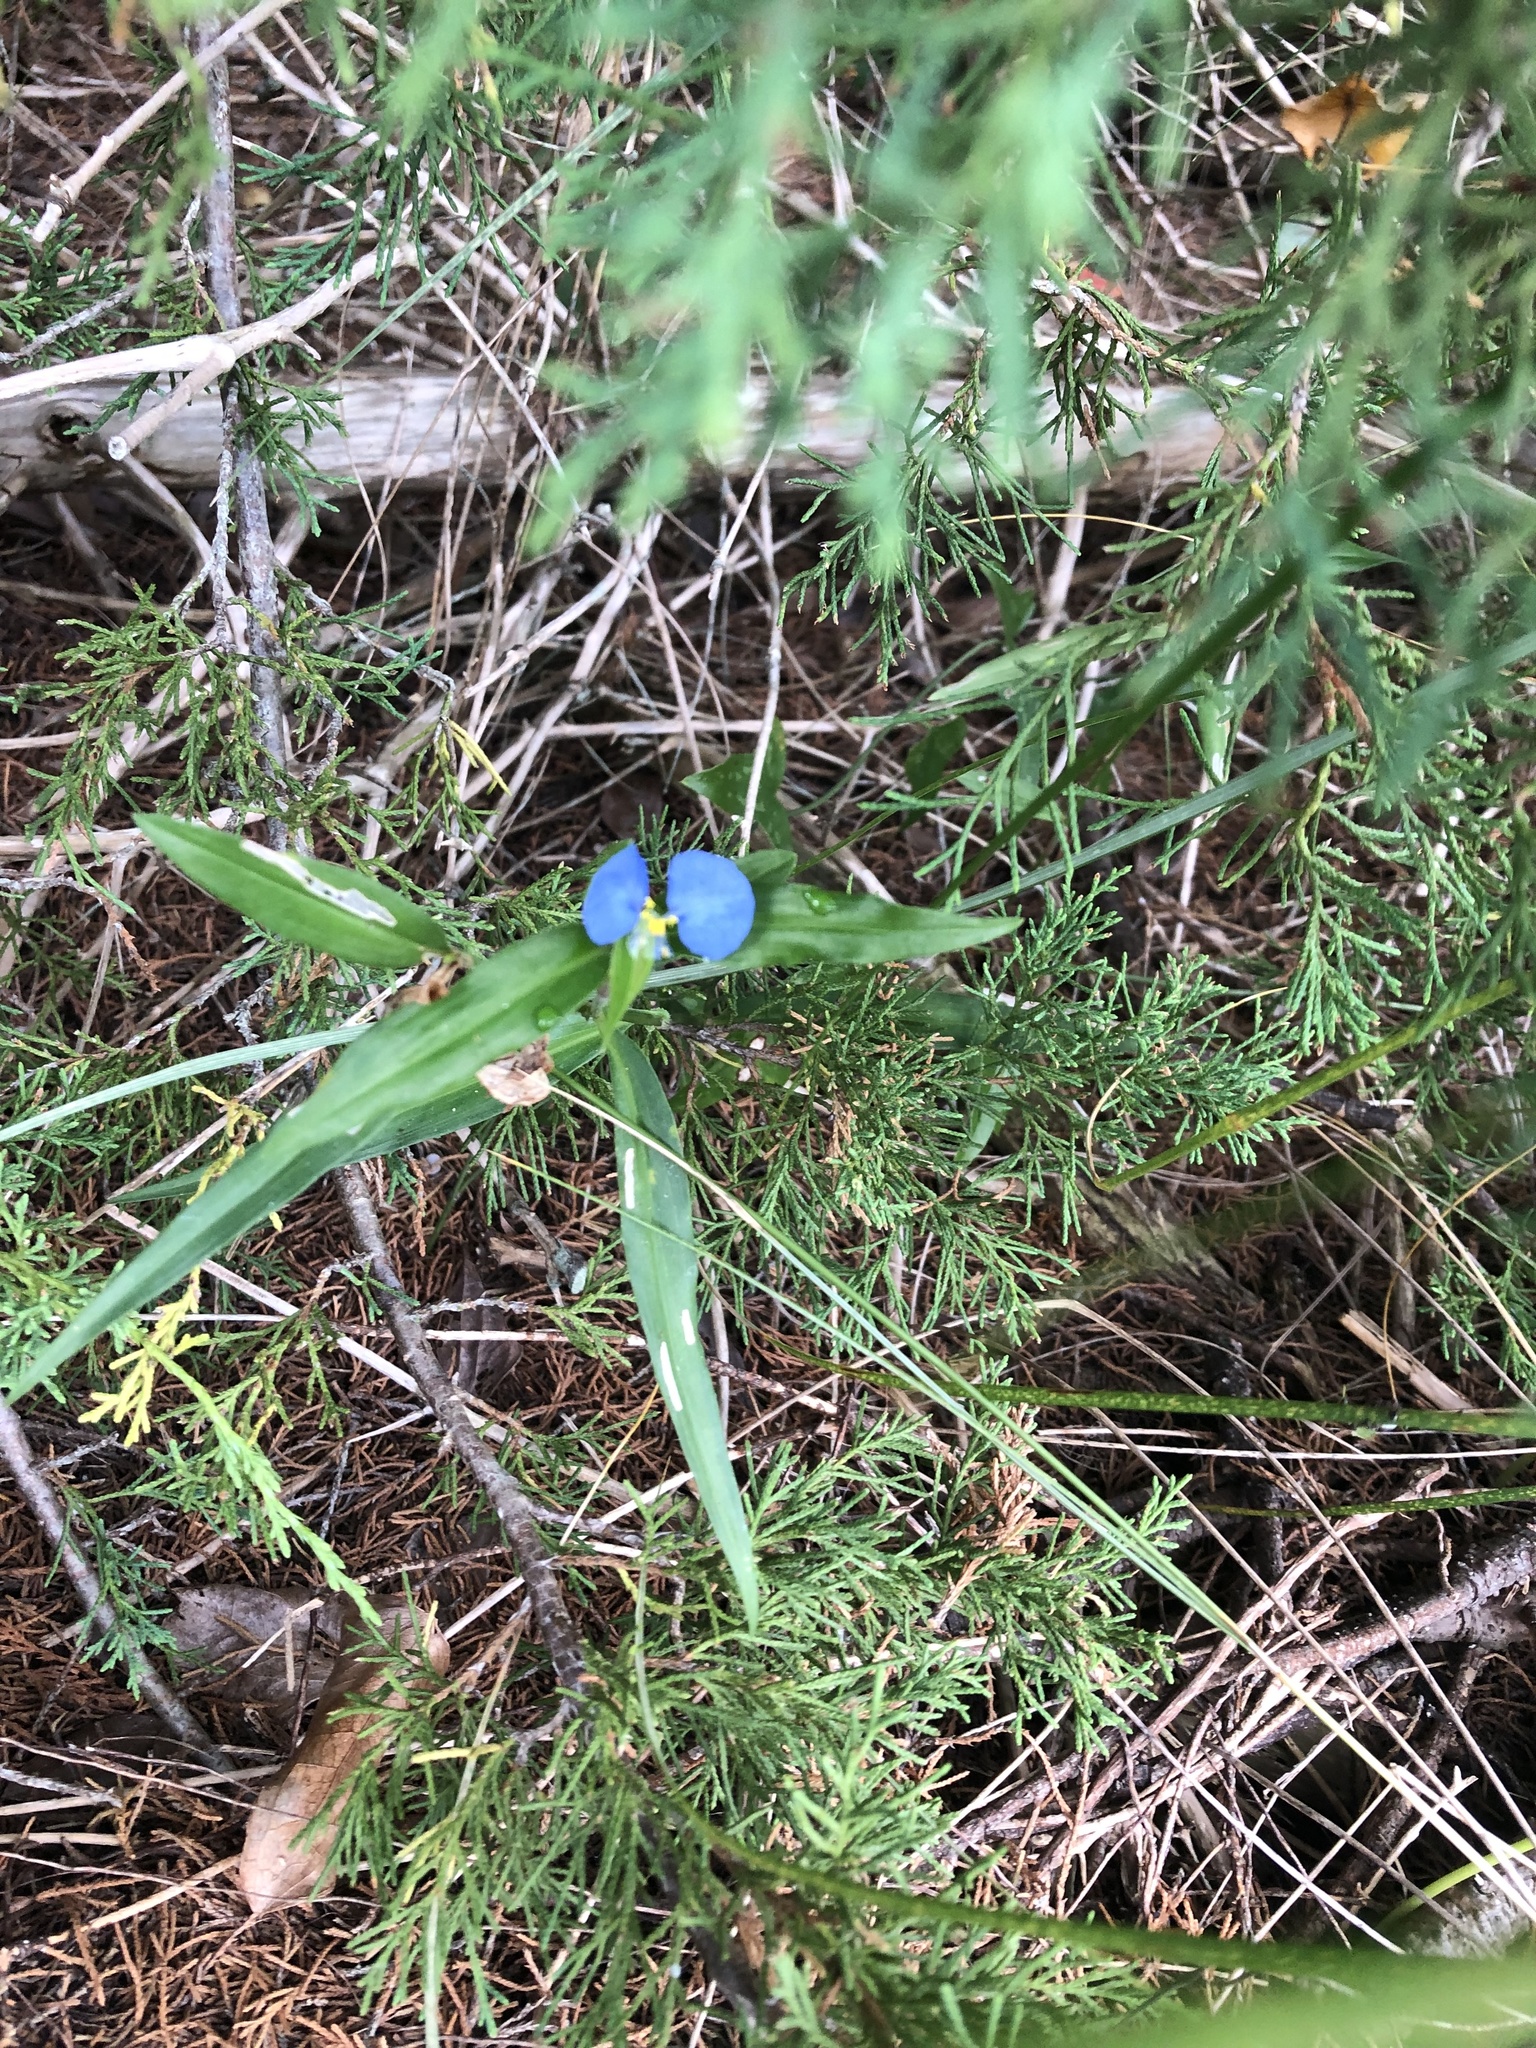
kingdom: Plantae
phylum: Tracheophyta
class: Liliopsida
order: Commelinales
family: Commelinaceae
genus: Commelina
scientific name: Commelina erecta
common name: Blousel blommetjie
